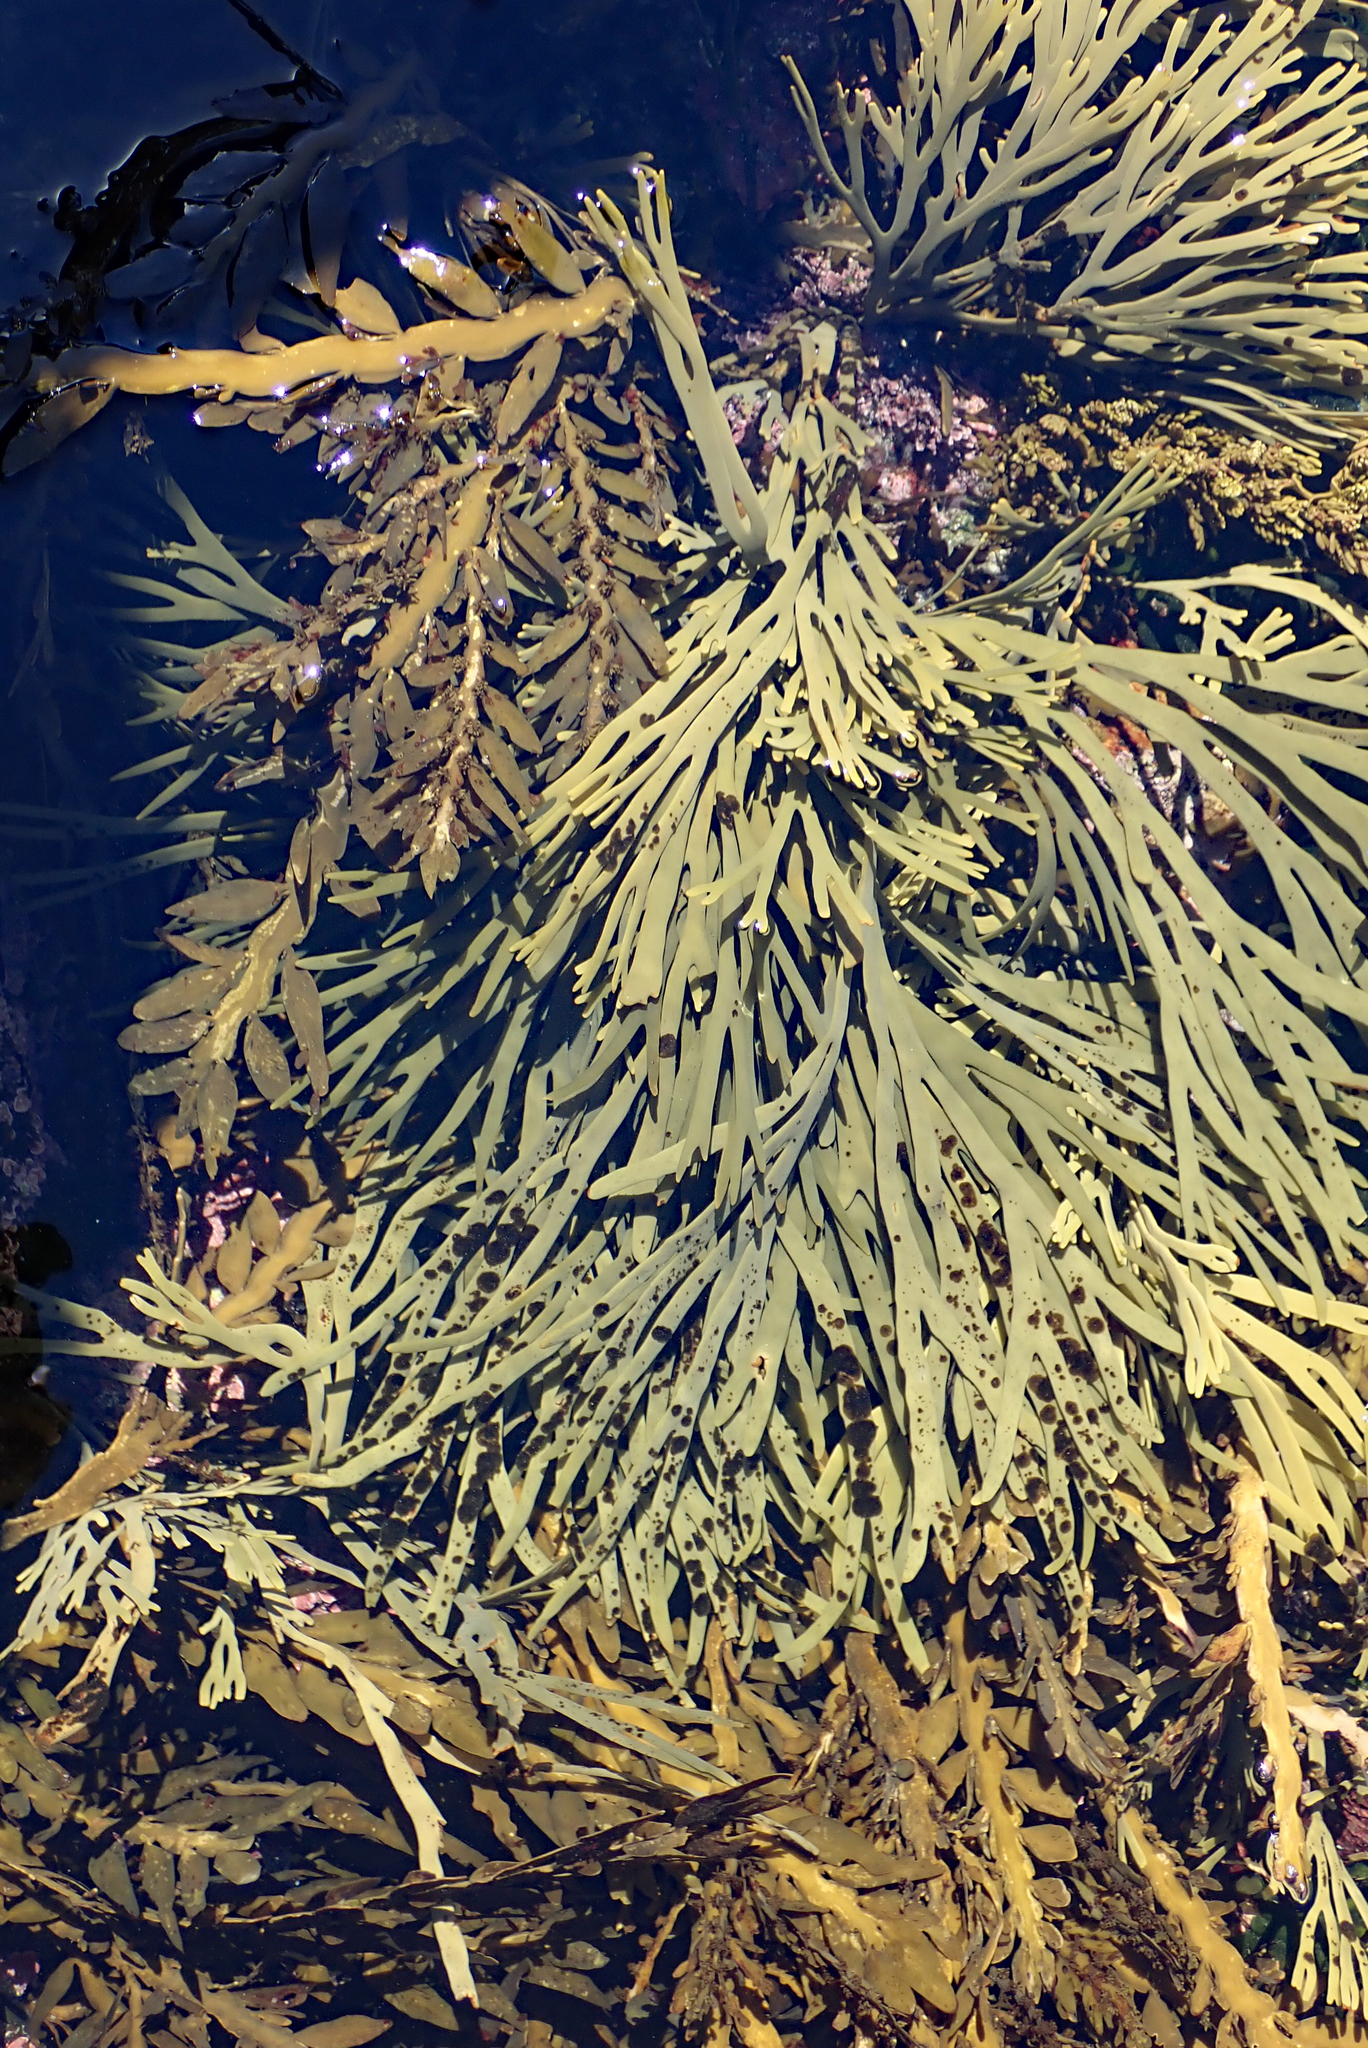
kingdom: Chromista
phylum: Ochrophyta
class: Phaeophyceae
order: Fucales
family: Xiphophoraceae
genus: Xiphophora
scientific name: Xiphophora gladiata
